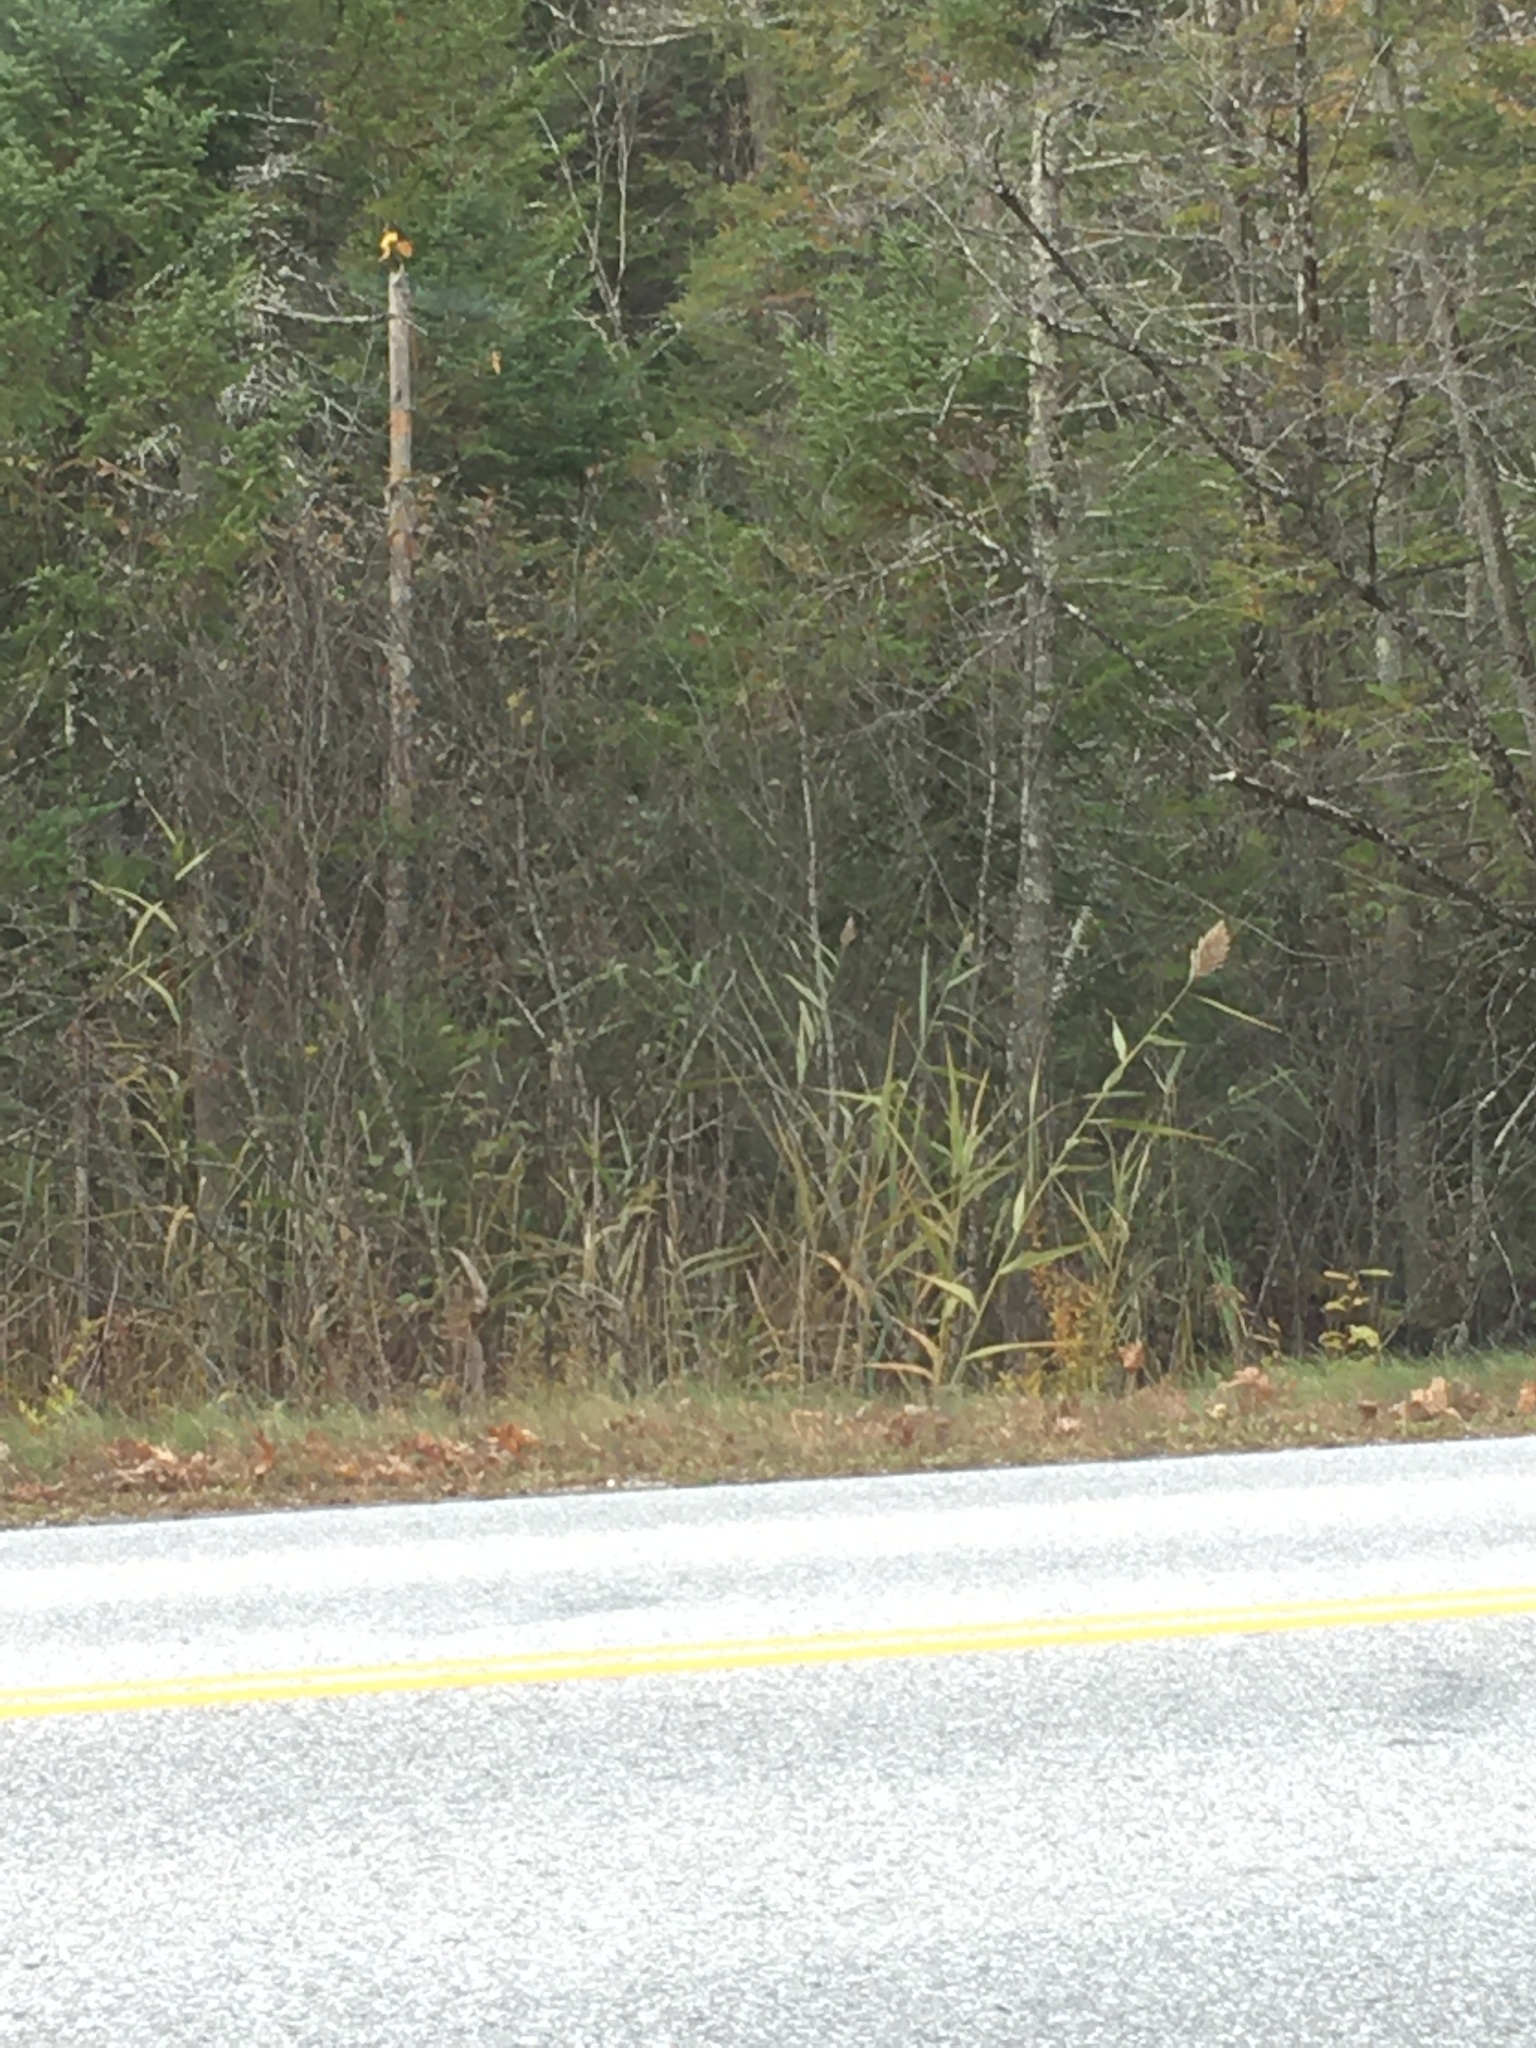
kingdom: Plantae
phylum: Tracheophyta
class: Liliopsida
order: Poales
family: Poaceae
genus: Phragmites
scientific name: Phragmites australis
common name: Common reed
